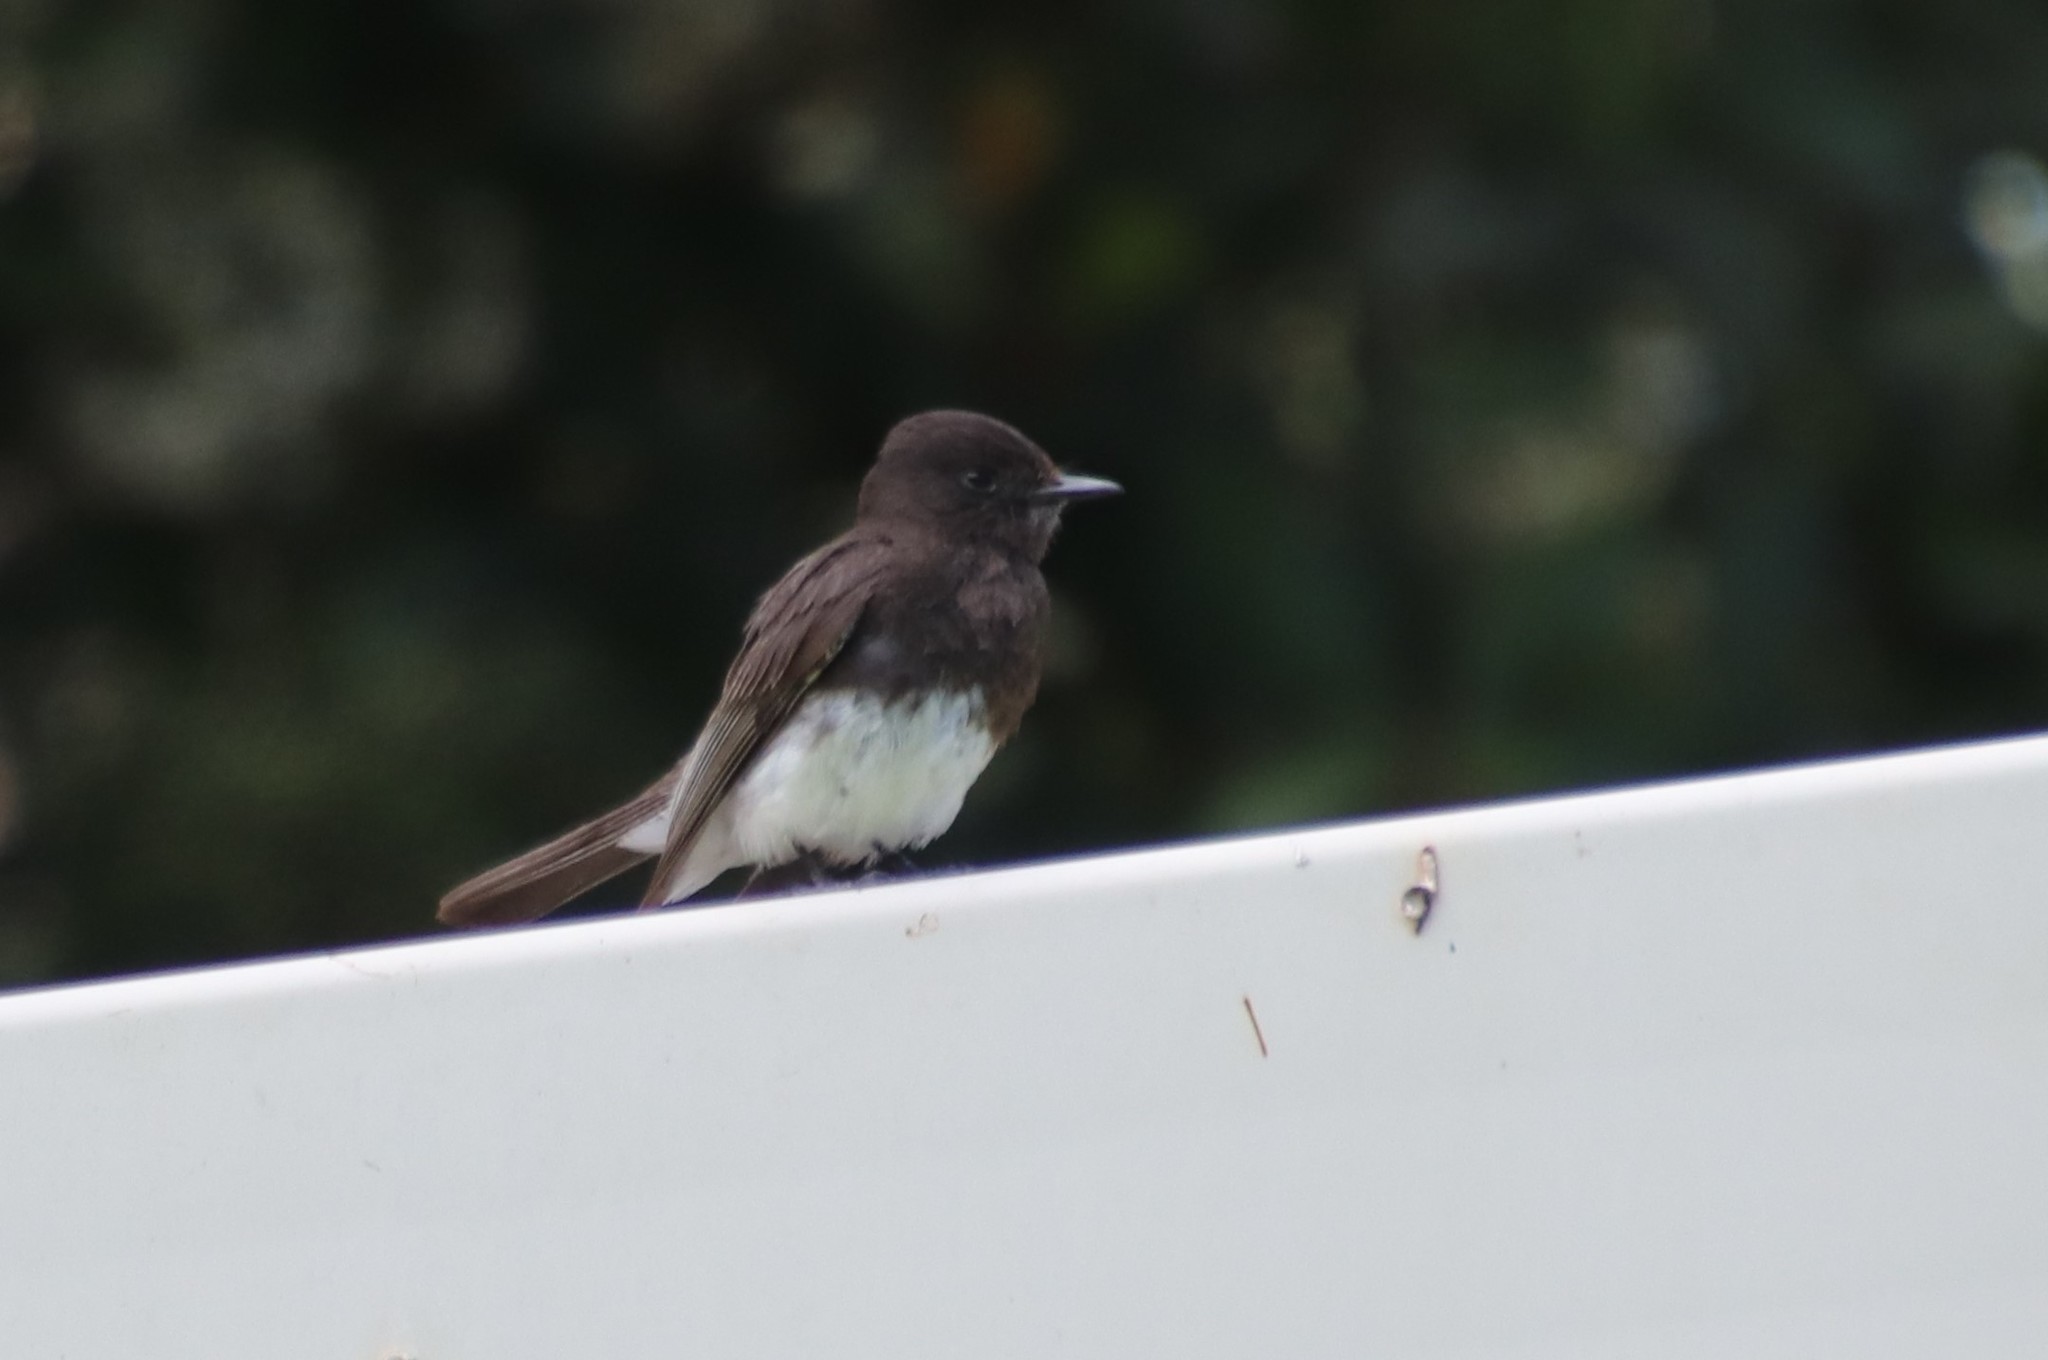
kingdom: Animalia
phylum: Chordata
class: Aves
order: Passeriformes
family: Tyrannidae
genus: Sayornis
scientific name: Sayornis nigricans
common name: Black phoebe
